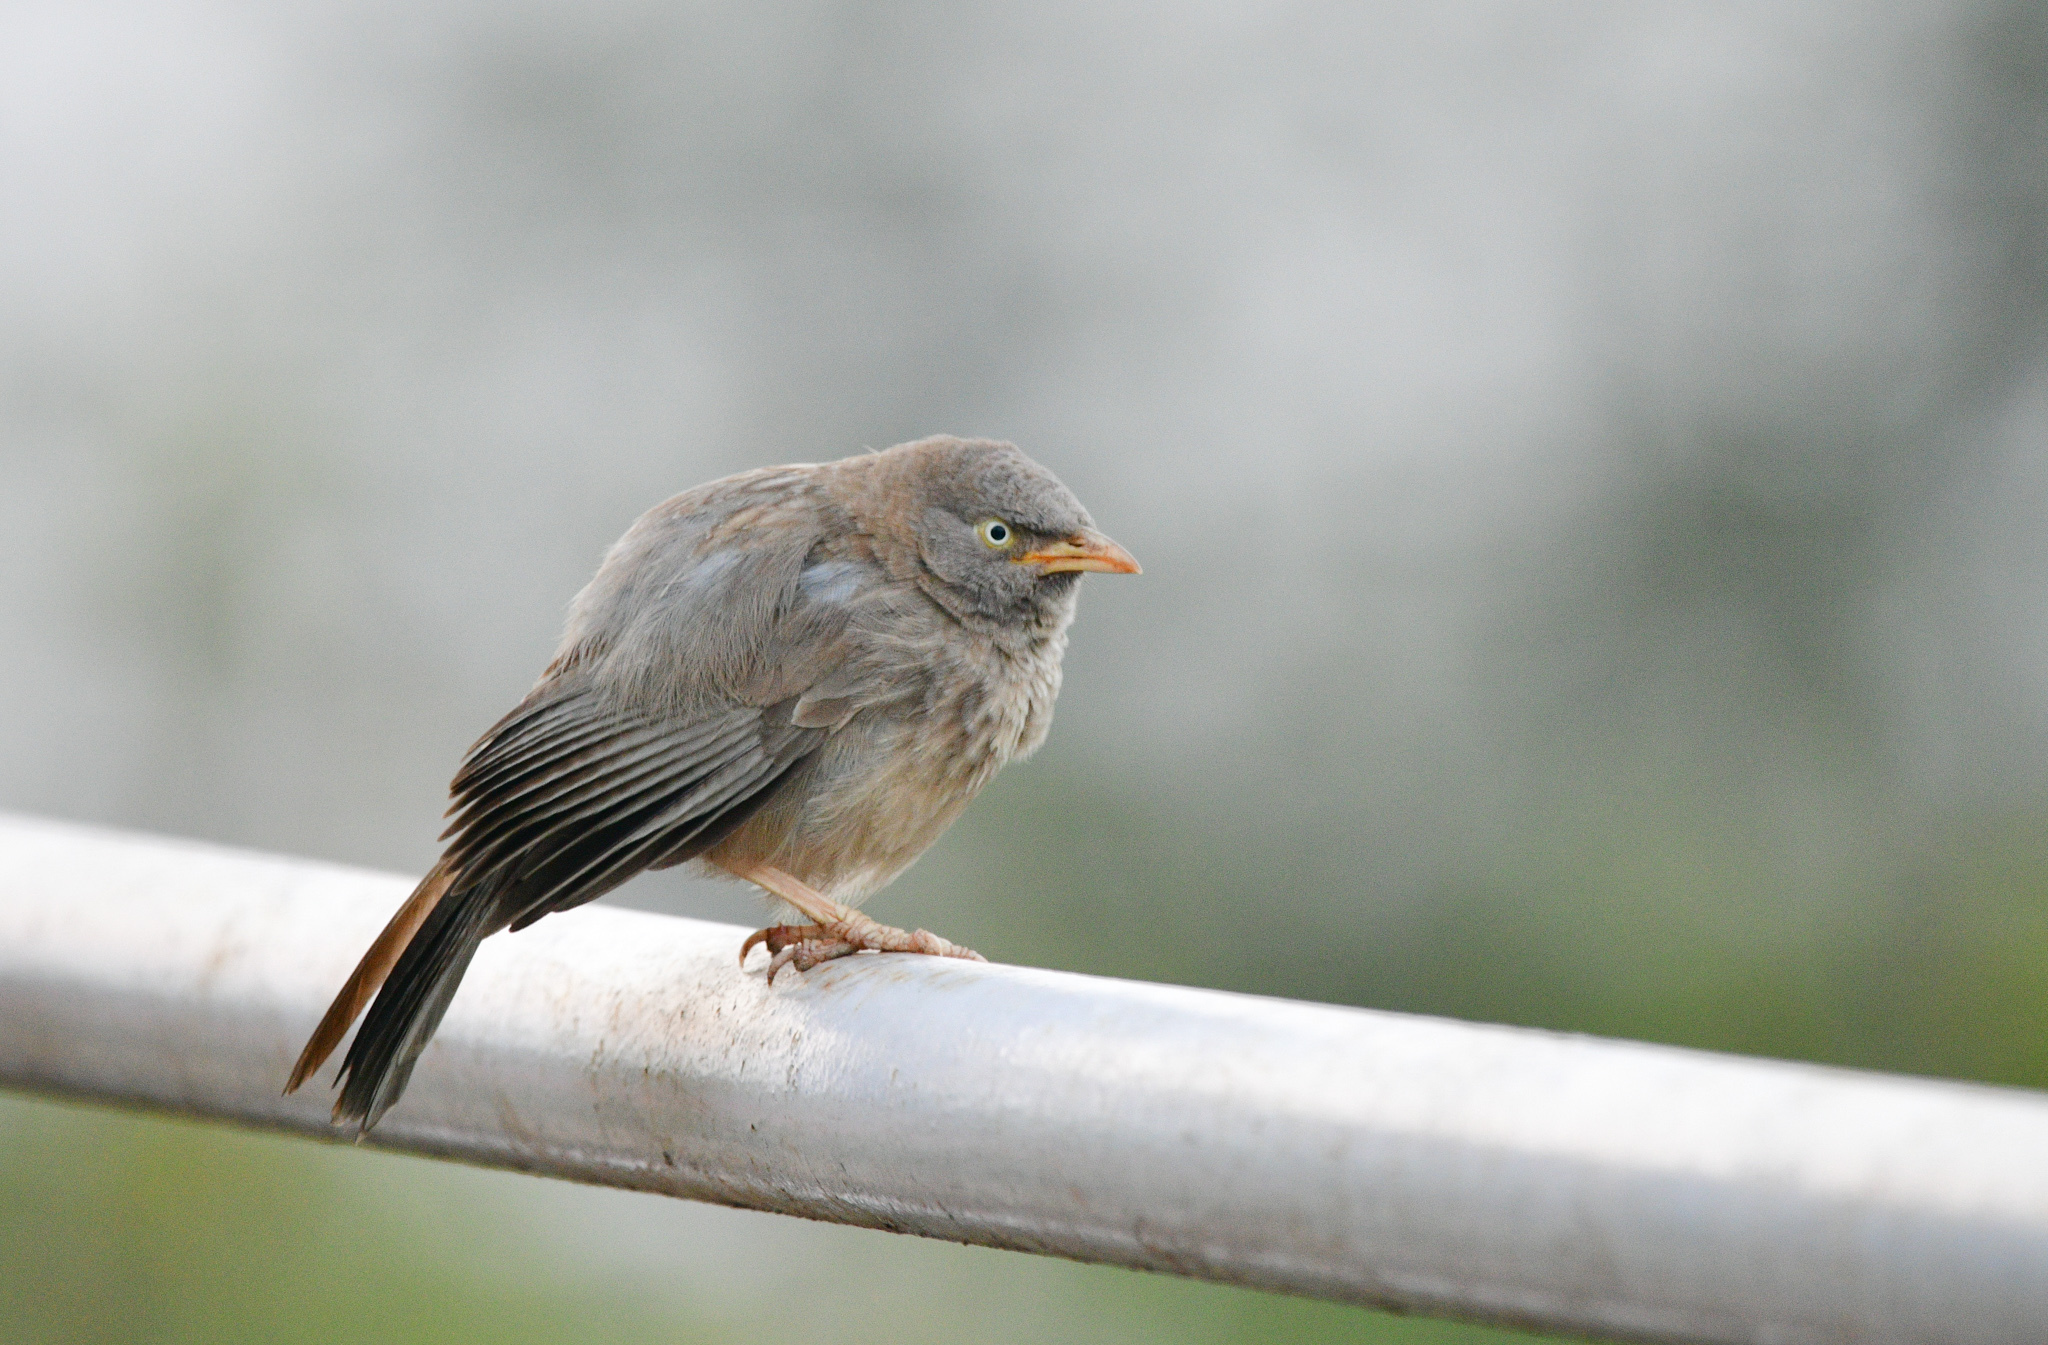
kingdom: Animalia
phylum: Chordata
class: Aves
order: Passeriformes
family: Leiothrichidae
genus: Turdoides
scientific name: Turdoides striata
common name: Jungle babbler
